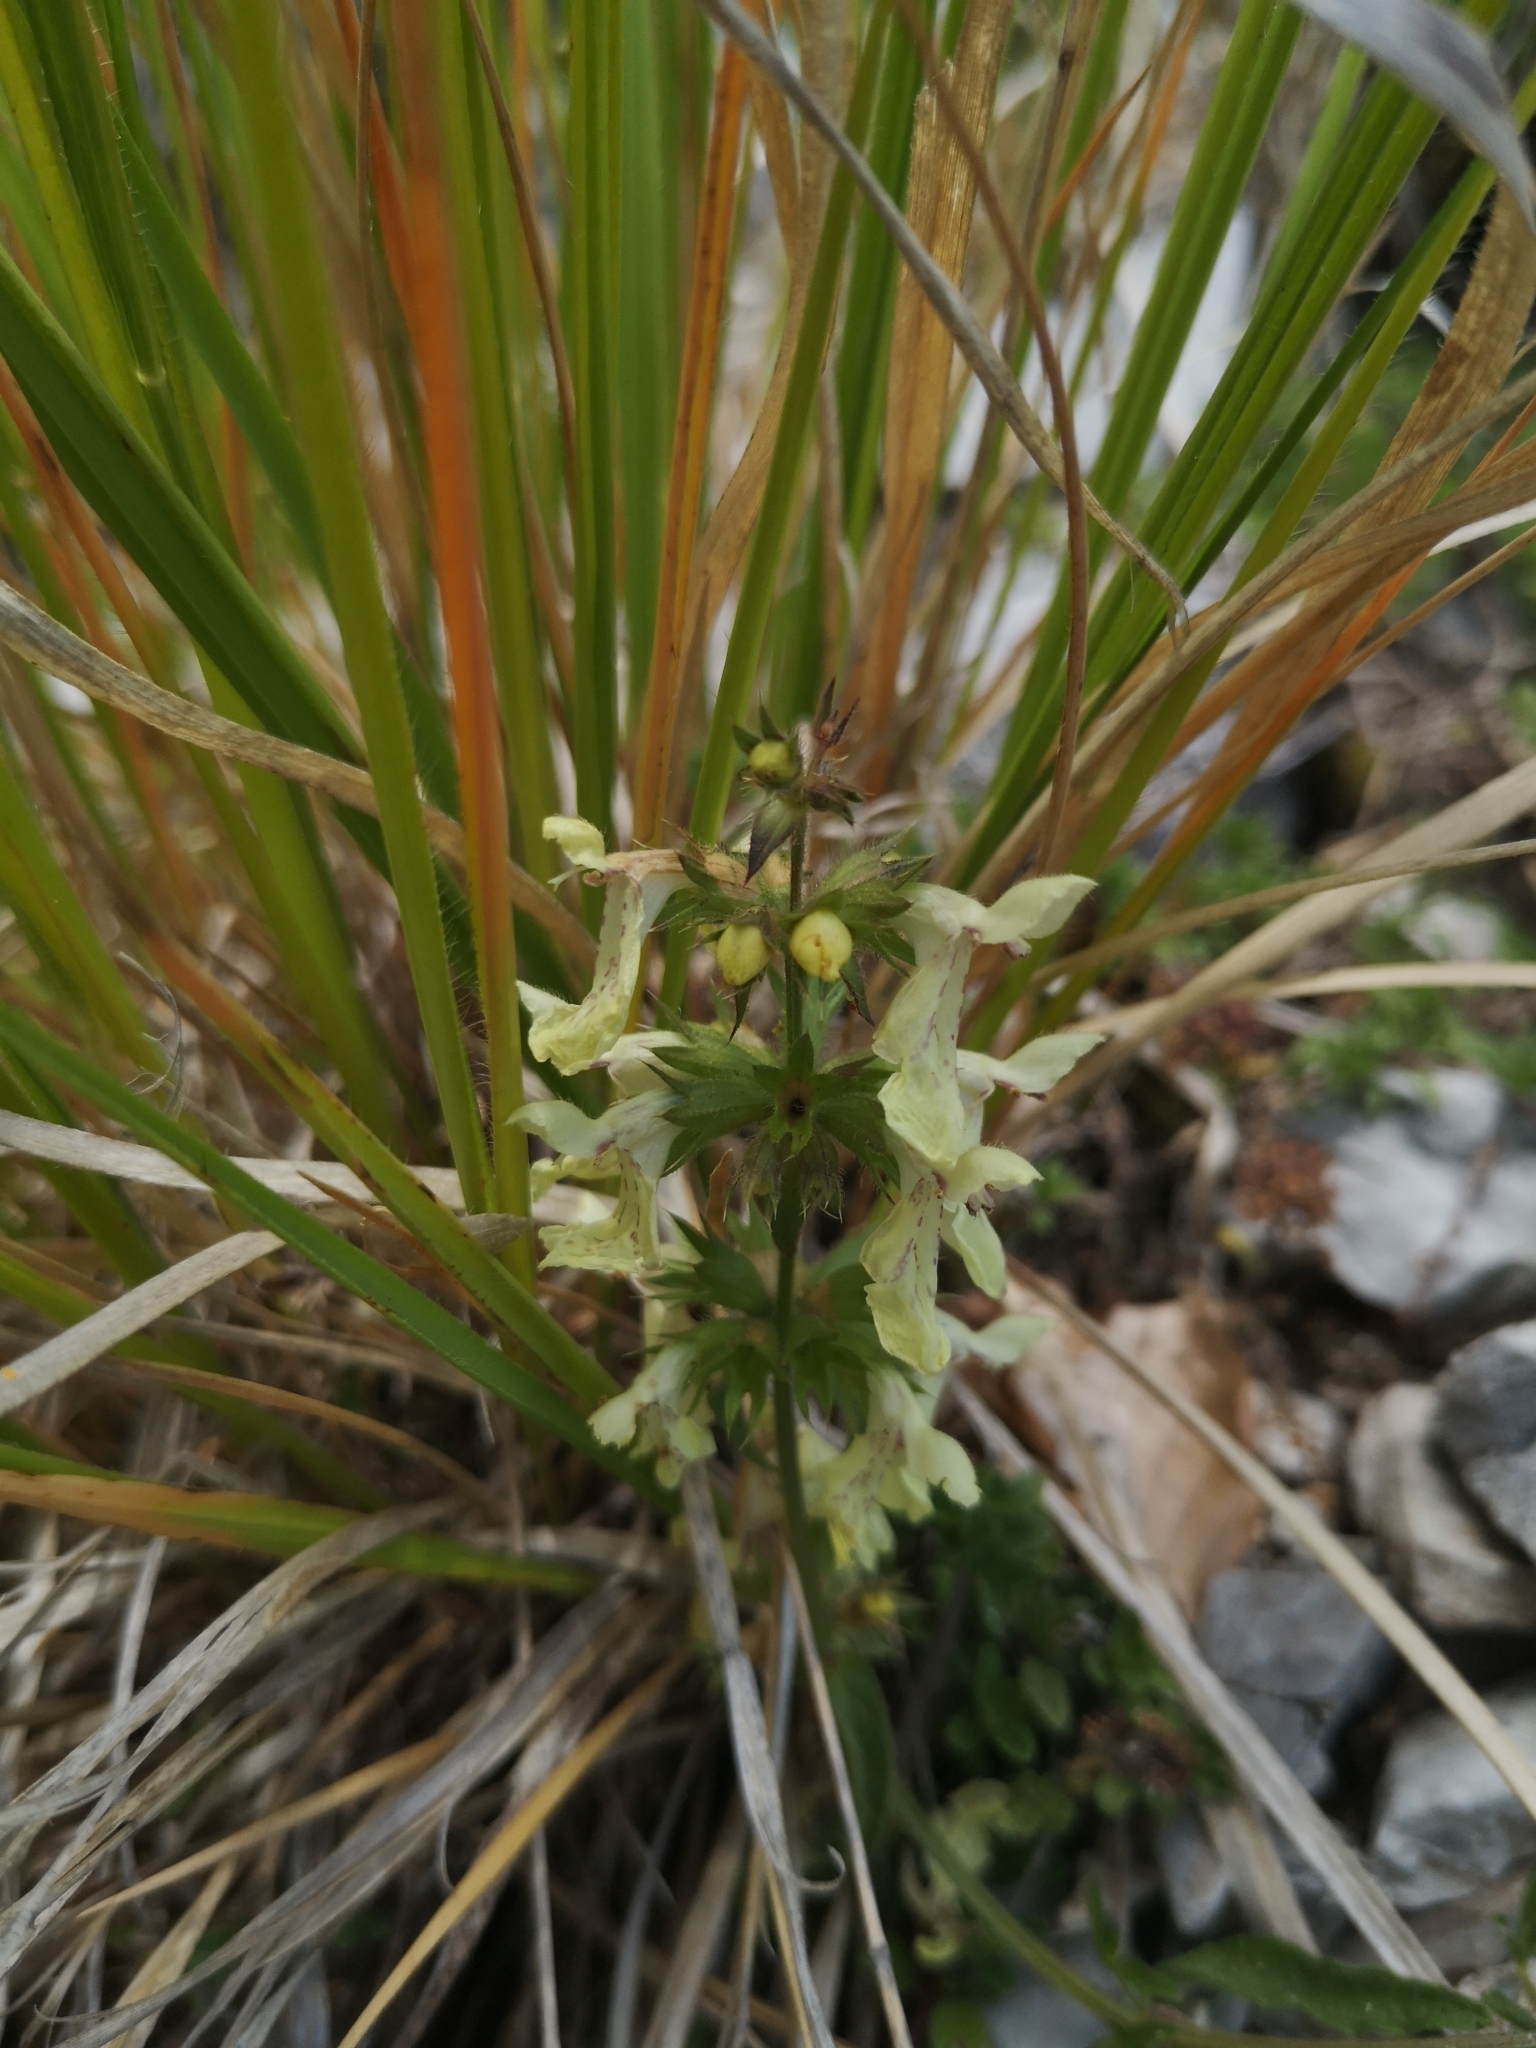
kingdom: Plantae
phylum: Tracheophyta
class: Magnoliopsida
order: Lamiales
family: Lamiaceae
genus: Stachys
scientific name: Stachys recta
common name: Perennial yellow-woundwort
